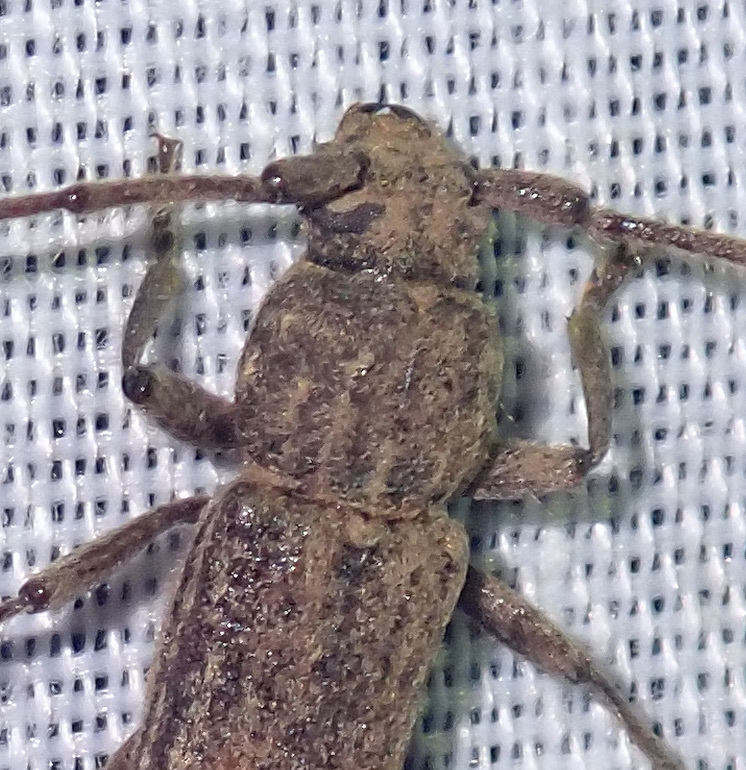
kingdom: Animalia
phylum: Arthropoda
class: Insecta
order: Coleoptera
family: Cerambycidae
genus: Zoodes
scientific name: Zoodes liturifer
